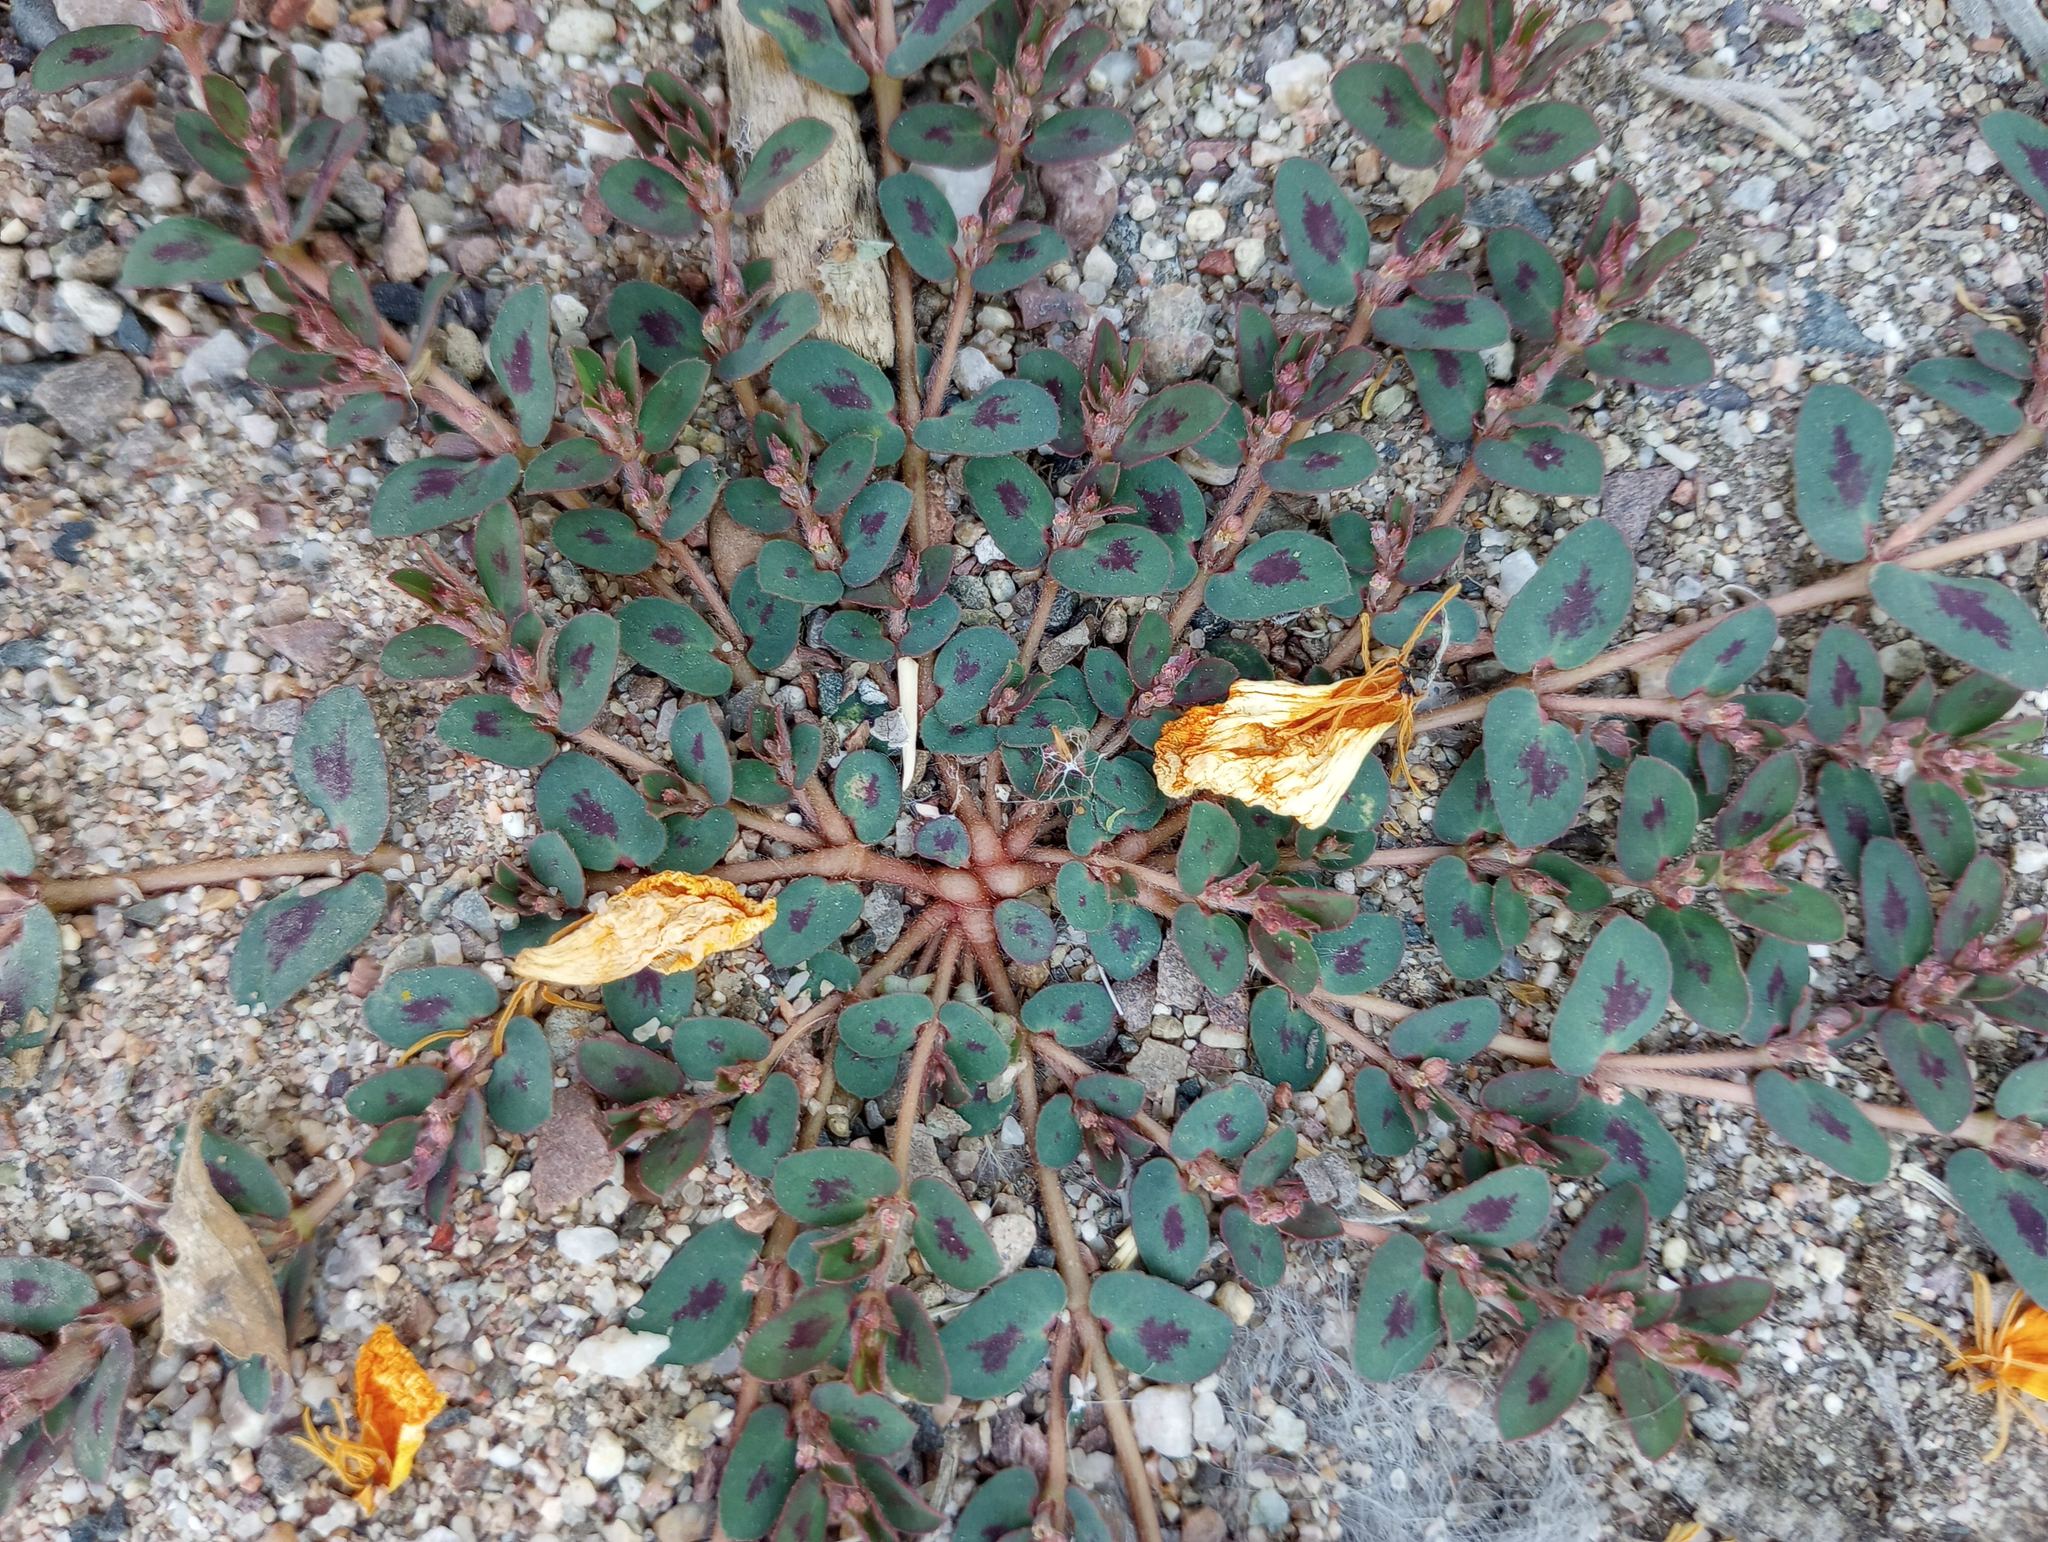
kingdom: Plantae
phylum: Tracheophyta
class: Magnoliopsida
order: Malpighiales
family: Euphorbiaceae
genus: Euphorbia
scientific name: Euphorbia maculata
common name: Spotted spurge
